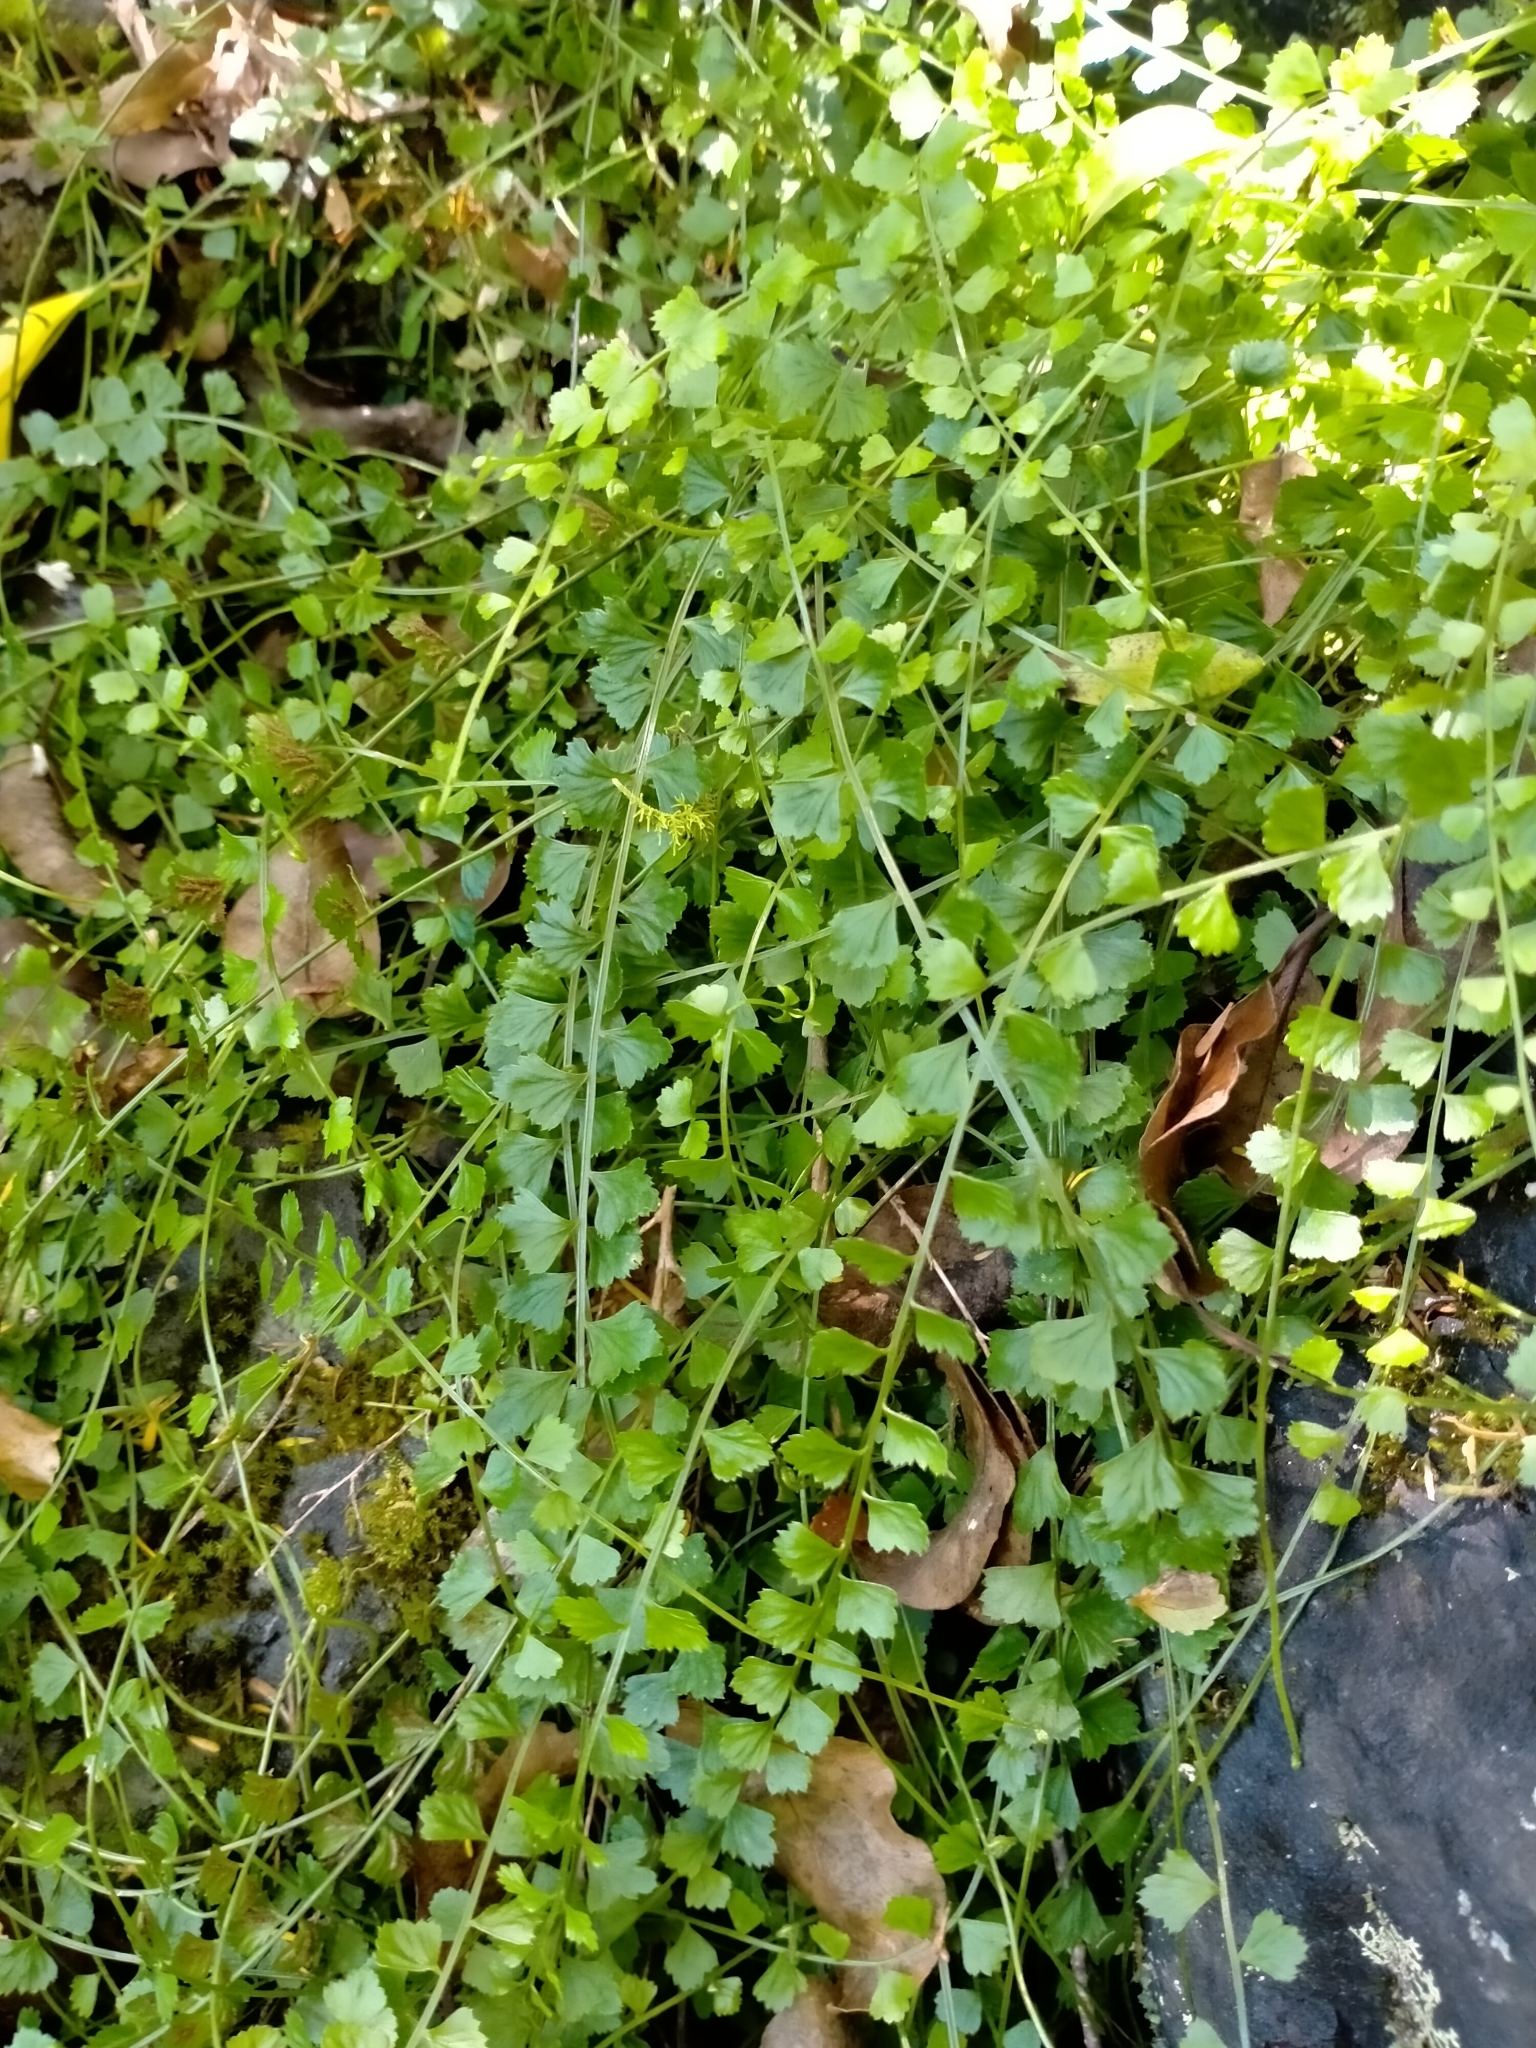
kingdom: Plantae
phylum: Tracheophyta
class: Polypodiopsida
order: Polypodiales
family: Aspleniaceae
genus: Asplenium
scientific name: Asplenium flabellifolium
